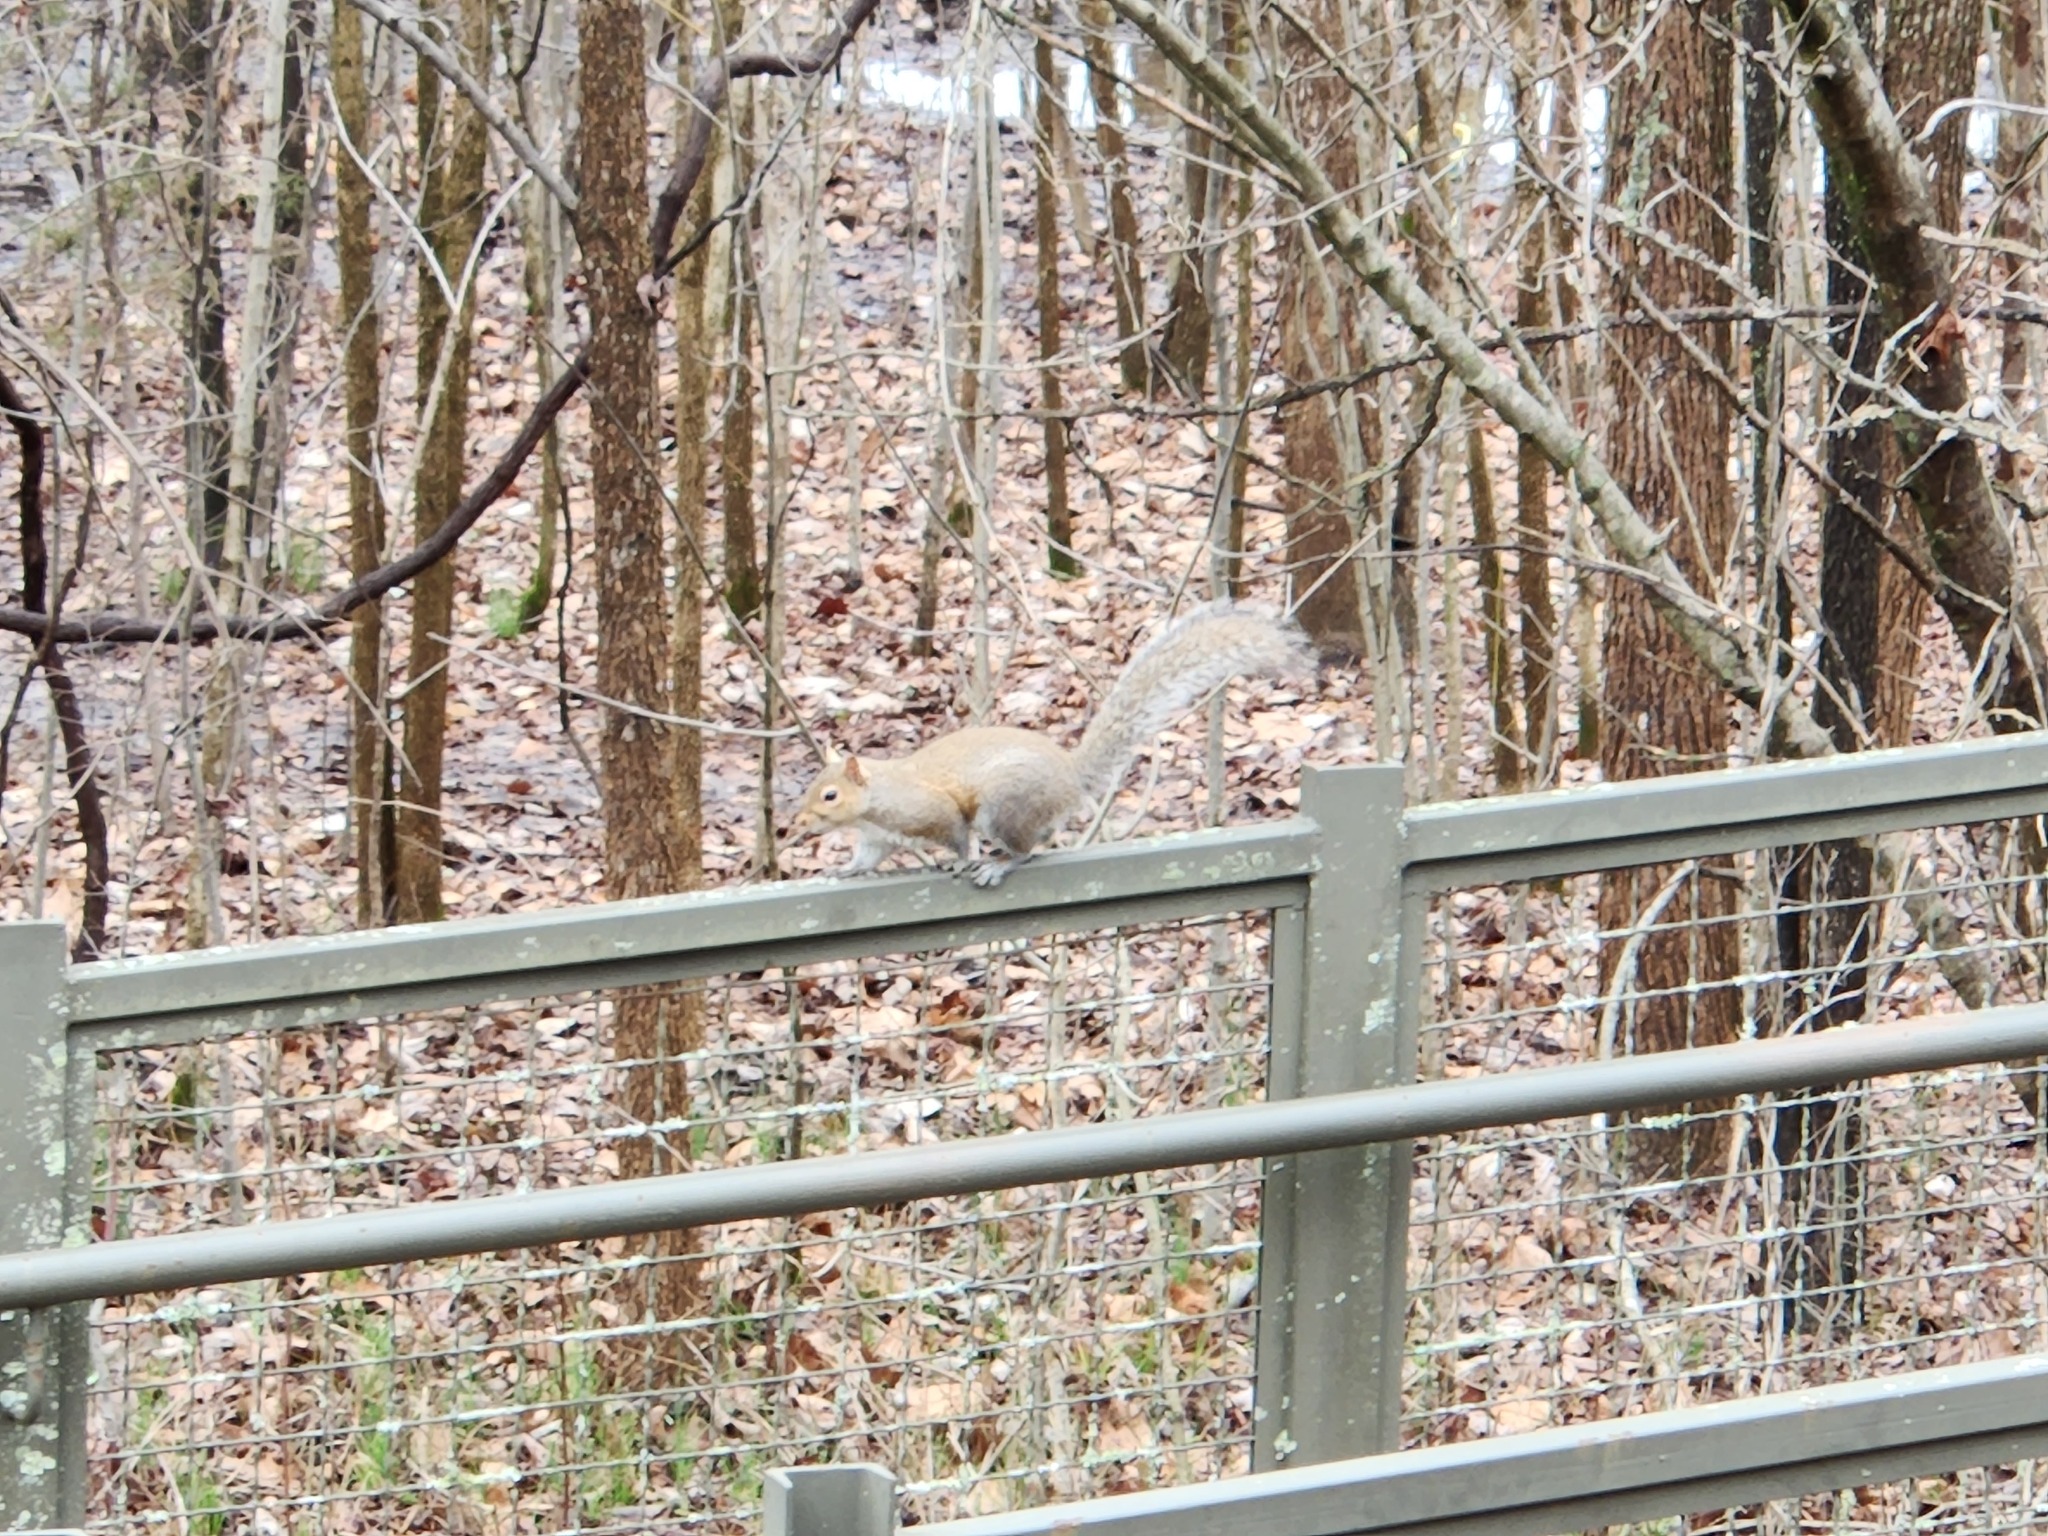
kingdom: Animalia
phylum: Chordata
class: Mammalia
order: Rodentia
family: Sciuridae
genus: Sciurus
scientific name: Sciurus carolinensis
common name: Eastern gray squirrel
